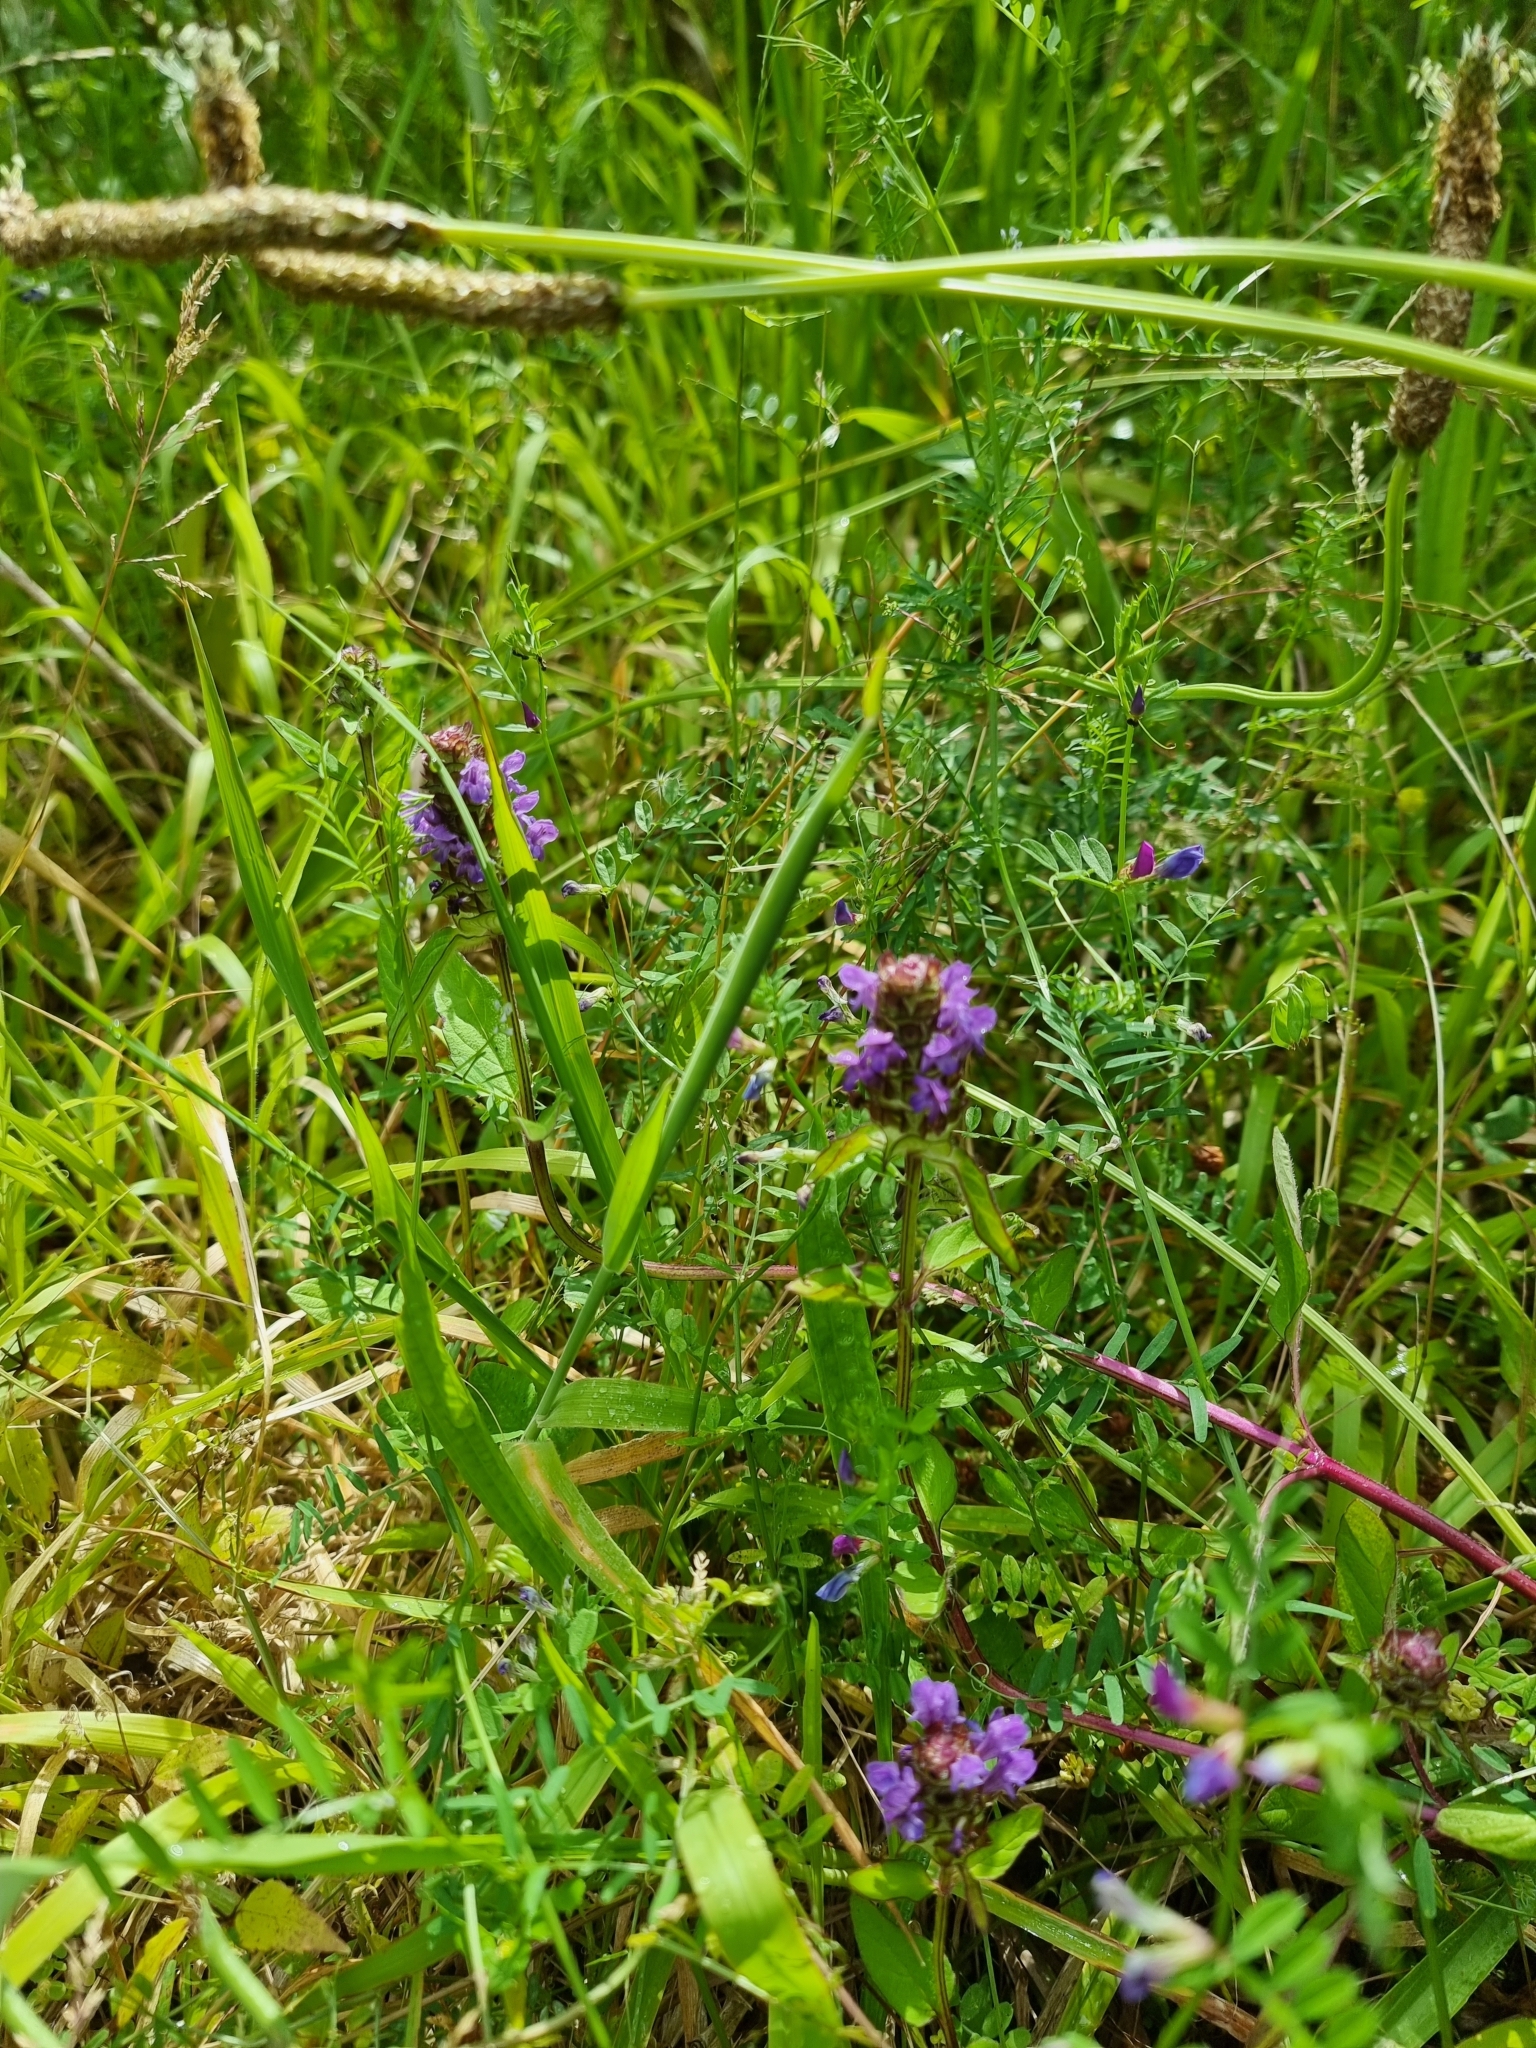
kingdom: Plantae
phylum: Tracheophyta
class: Magnoliopsida
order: Lamiales
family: Lamiaceae
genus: Prunella
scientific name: Prunella vulgaris
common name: Heal-all
